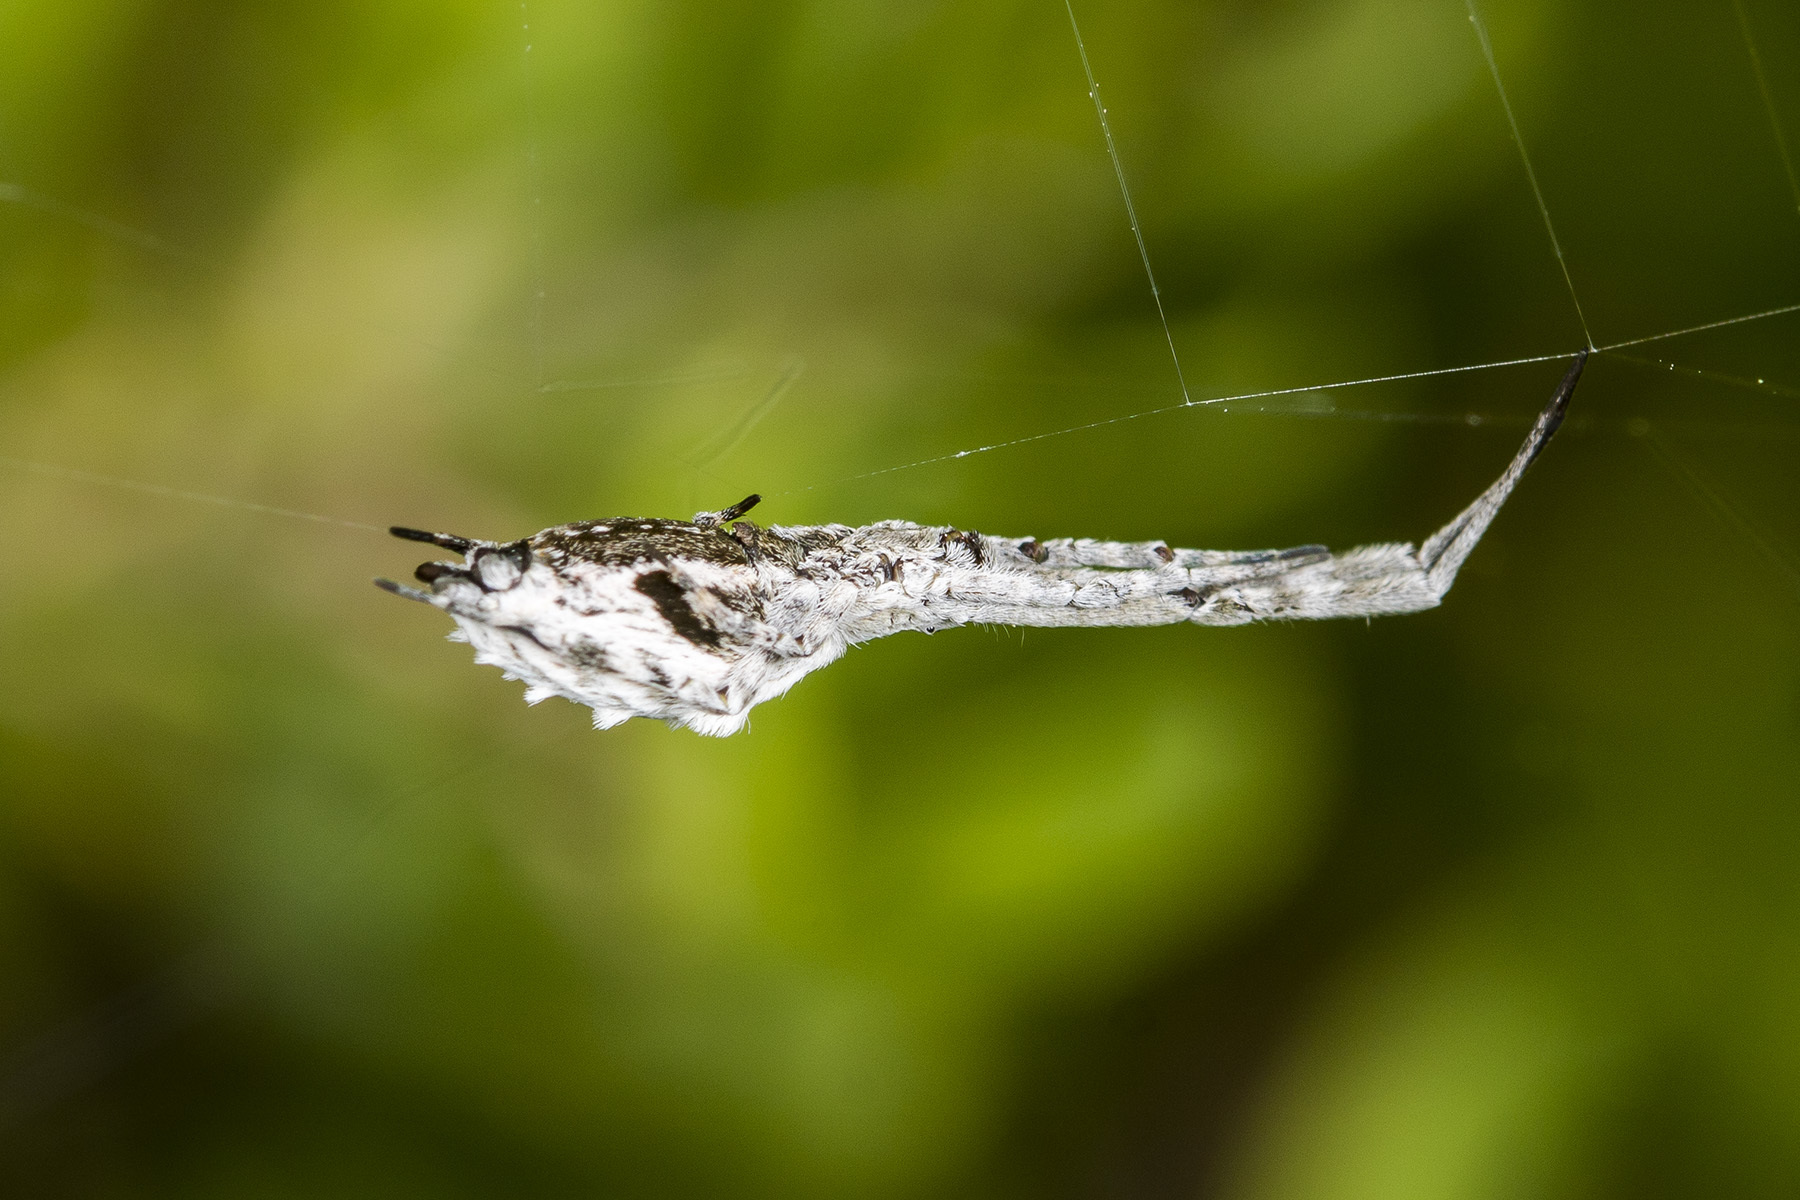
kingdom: Animalia
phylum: Arthropoda
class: Arachnida
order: Araneae
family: Uloboridae
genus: Uloborus
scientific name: Uloborus walckenaerius
